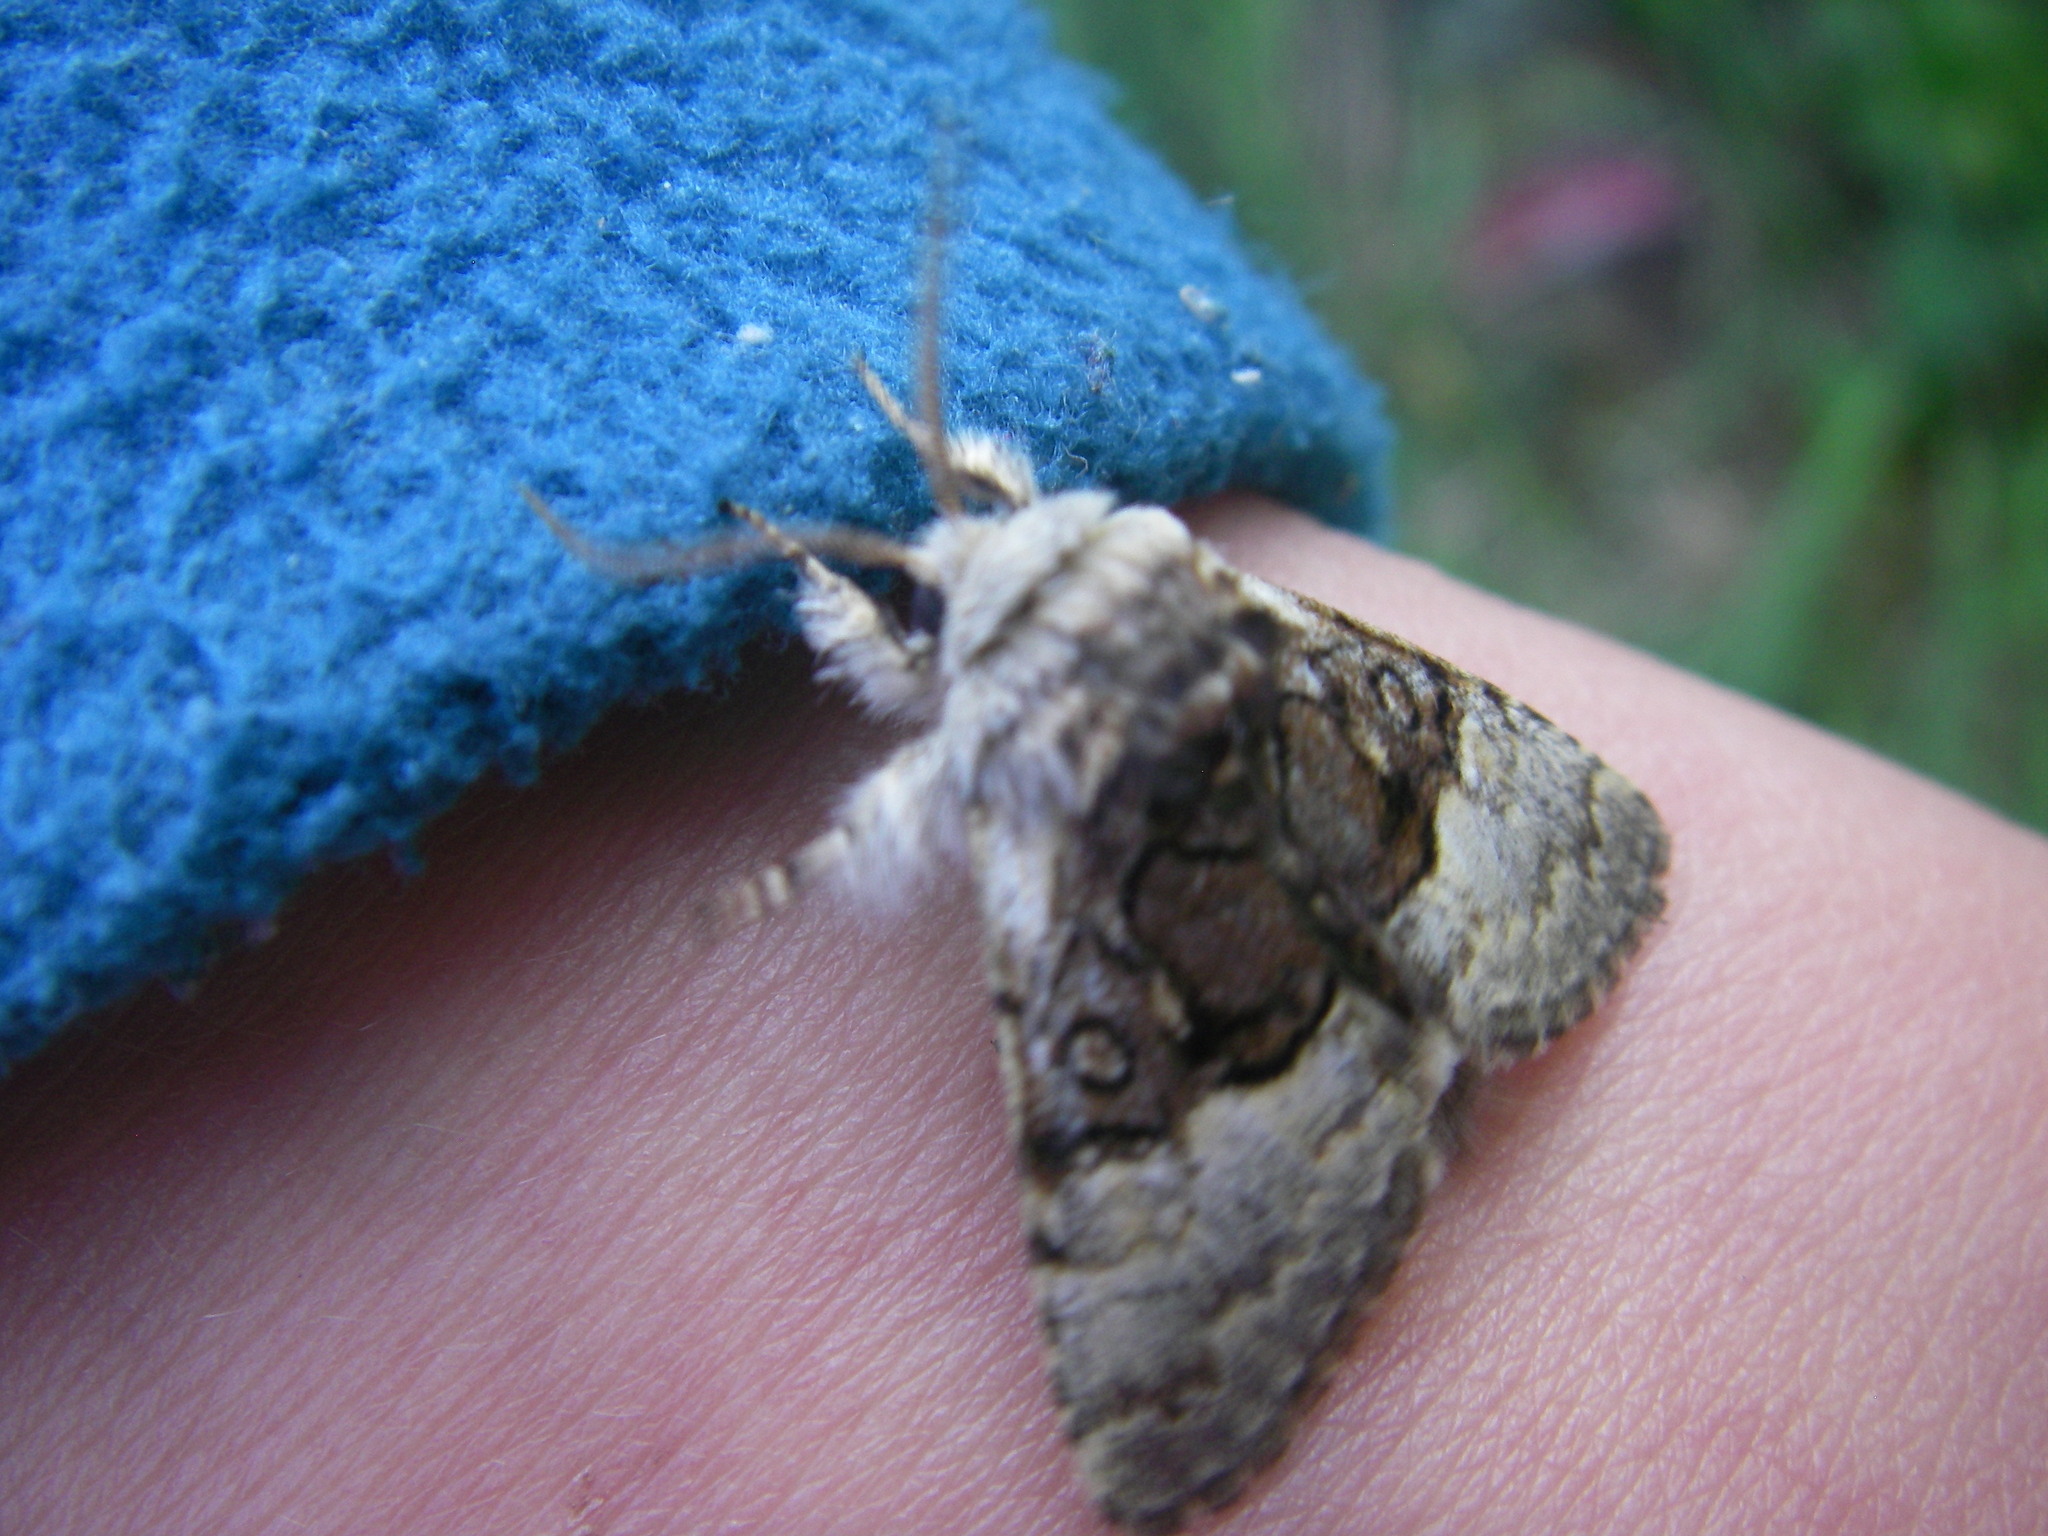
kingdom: Animalia
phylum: Arthropoda
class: Insecta
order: Lepidoptera
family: Noctuidae
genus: Colocasia
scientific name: Colocasia coryli
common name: Nut-tree tussock
